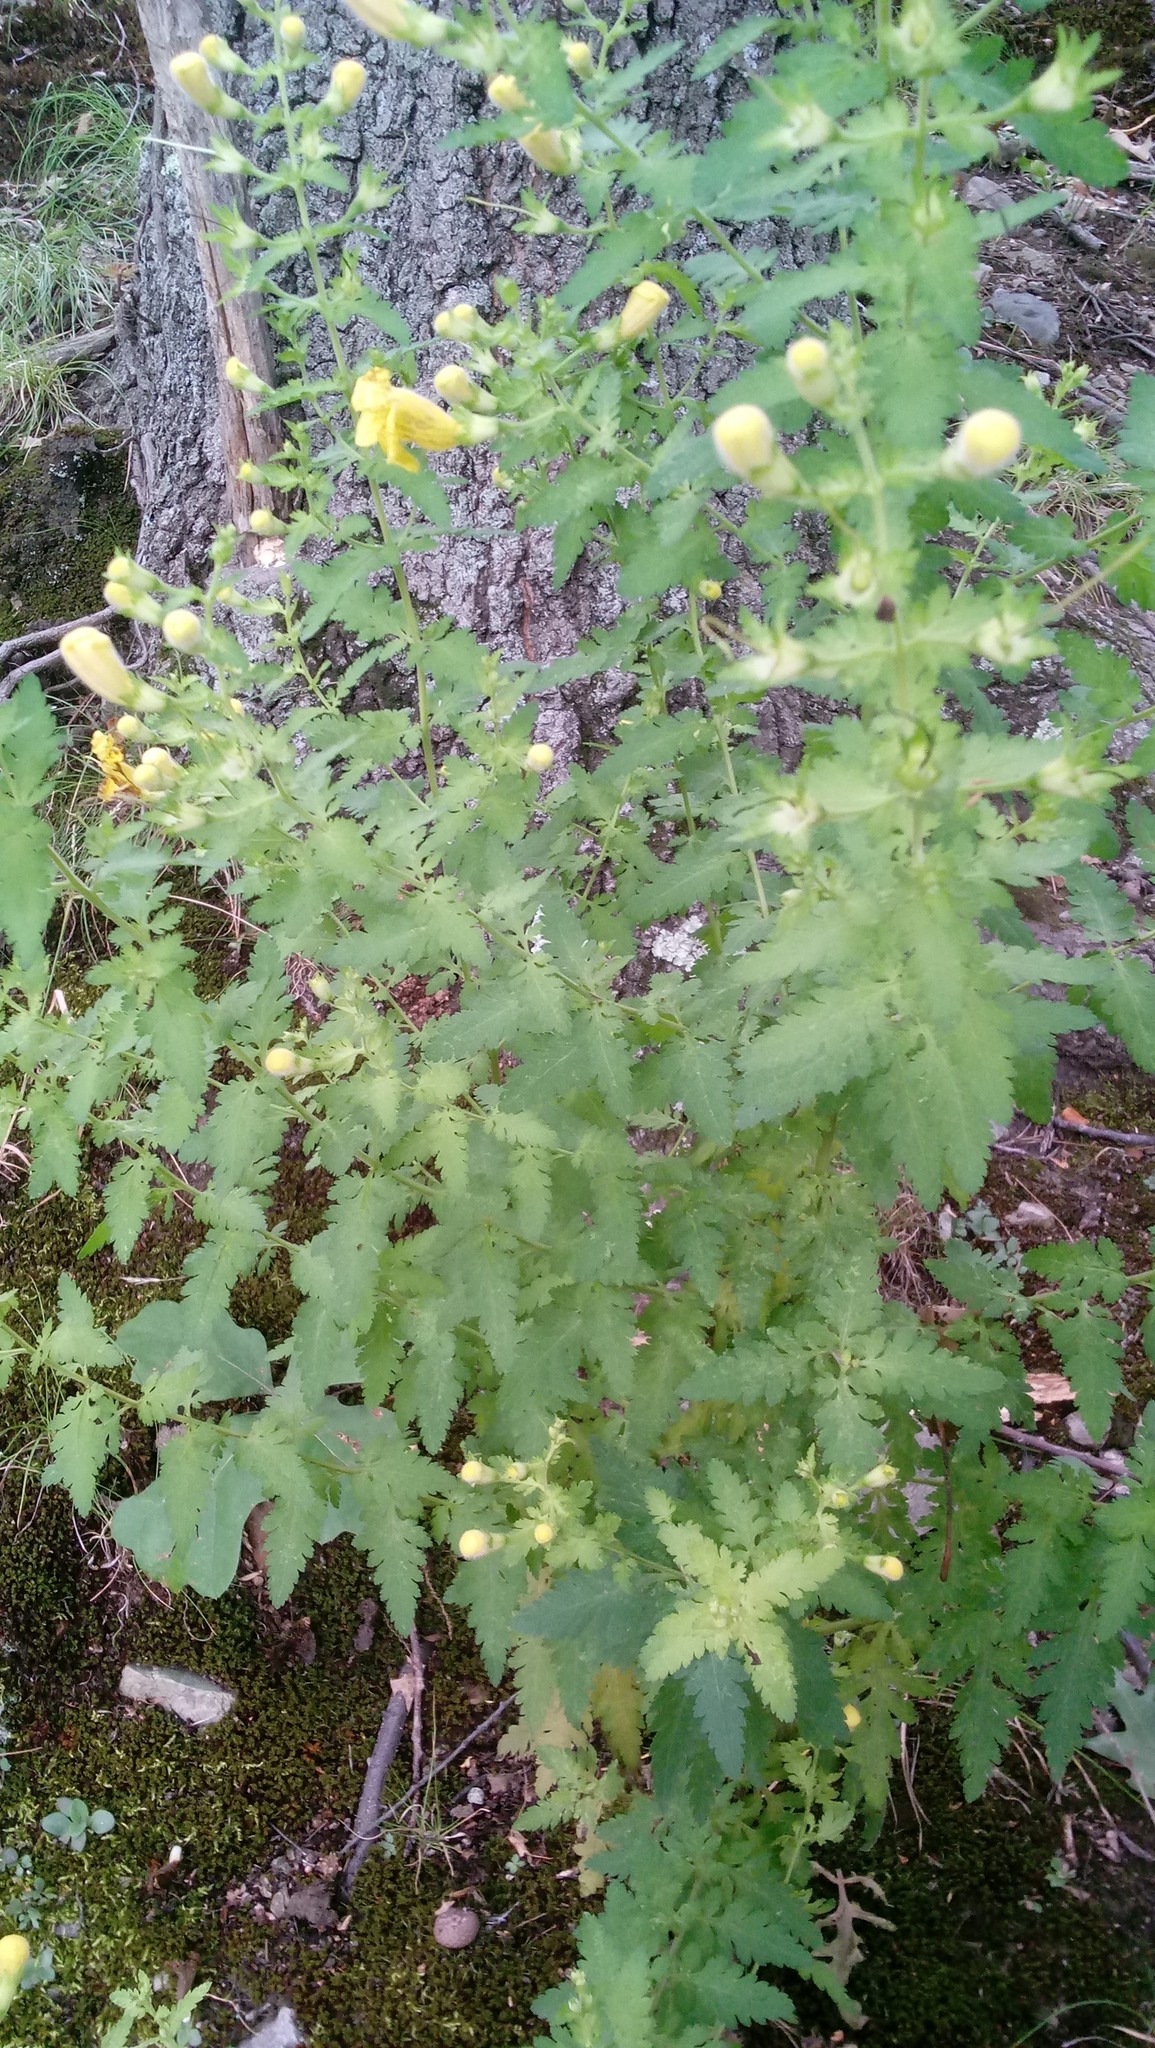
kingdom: Plantae
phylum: Tracheophyta
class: Magnoliopsida
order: Lamiales
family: Orobanchaceae
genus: Aureolaria
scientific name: Aureolaria pedicularia
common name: Annual false foxglove
